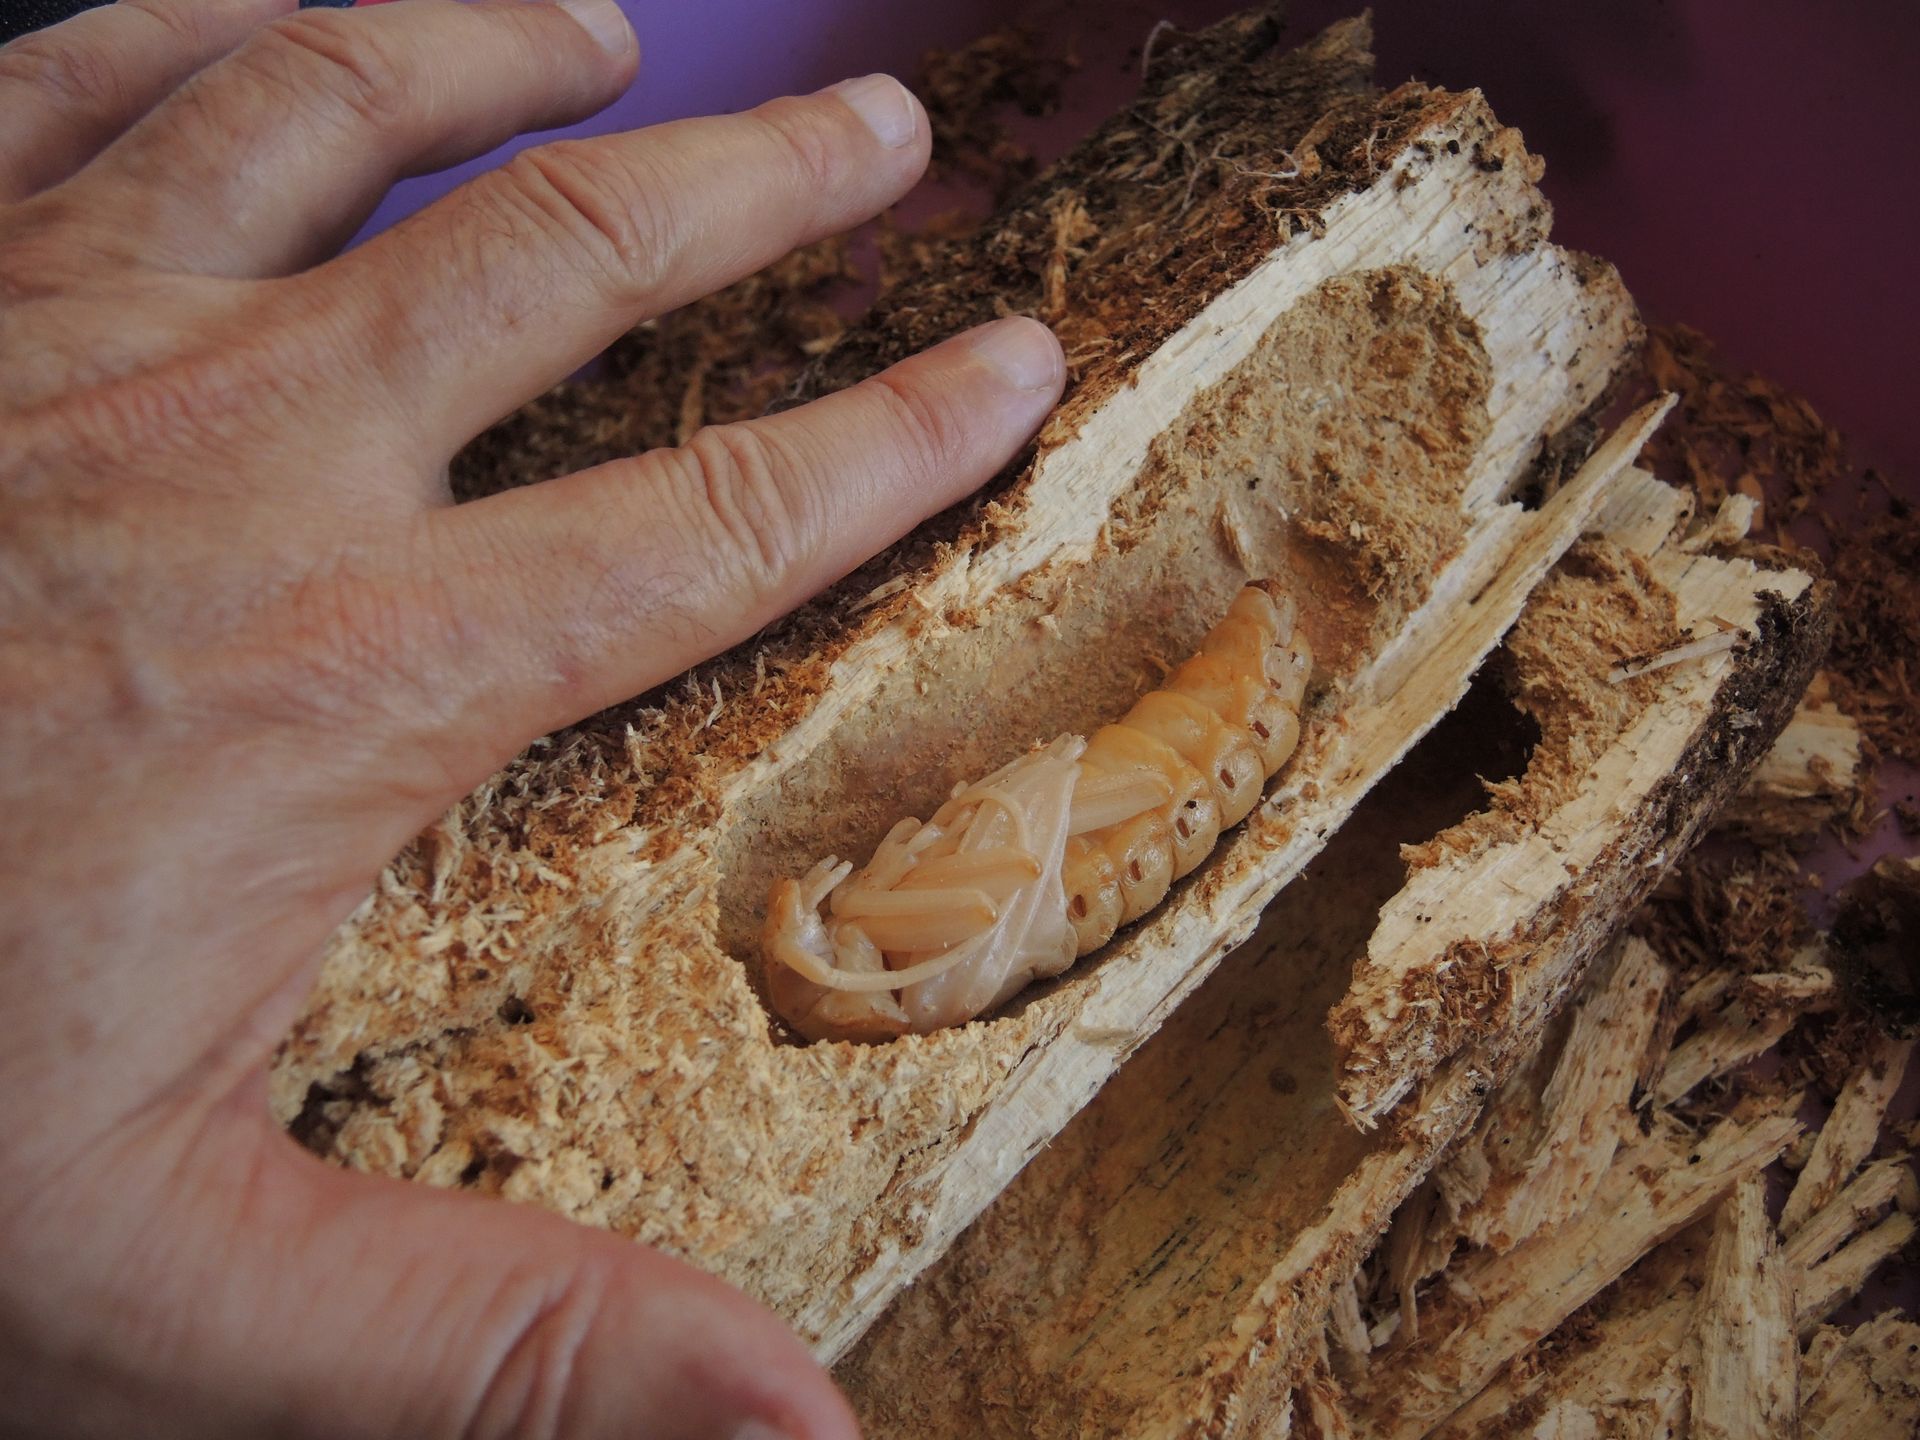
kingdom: Animalia
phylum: Arthropoda
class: Insecta
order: Coleoptera
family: Cerambycidae
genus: Xixuthrus
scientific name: Xixuthrus microcerus
